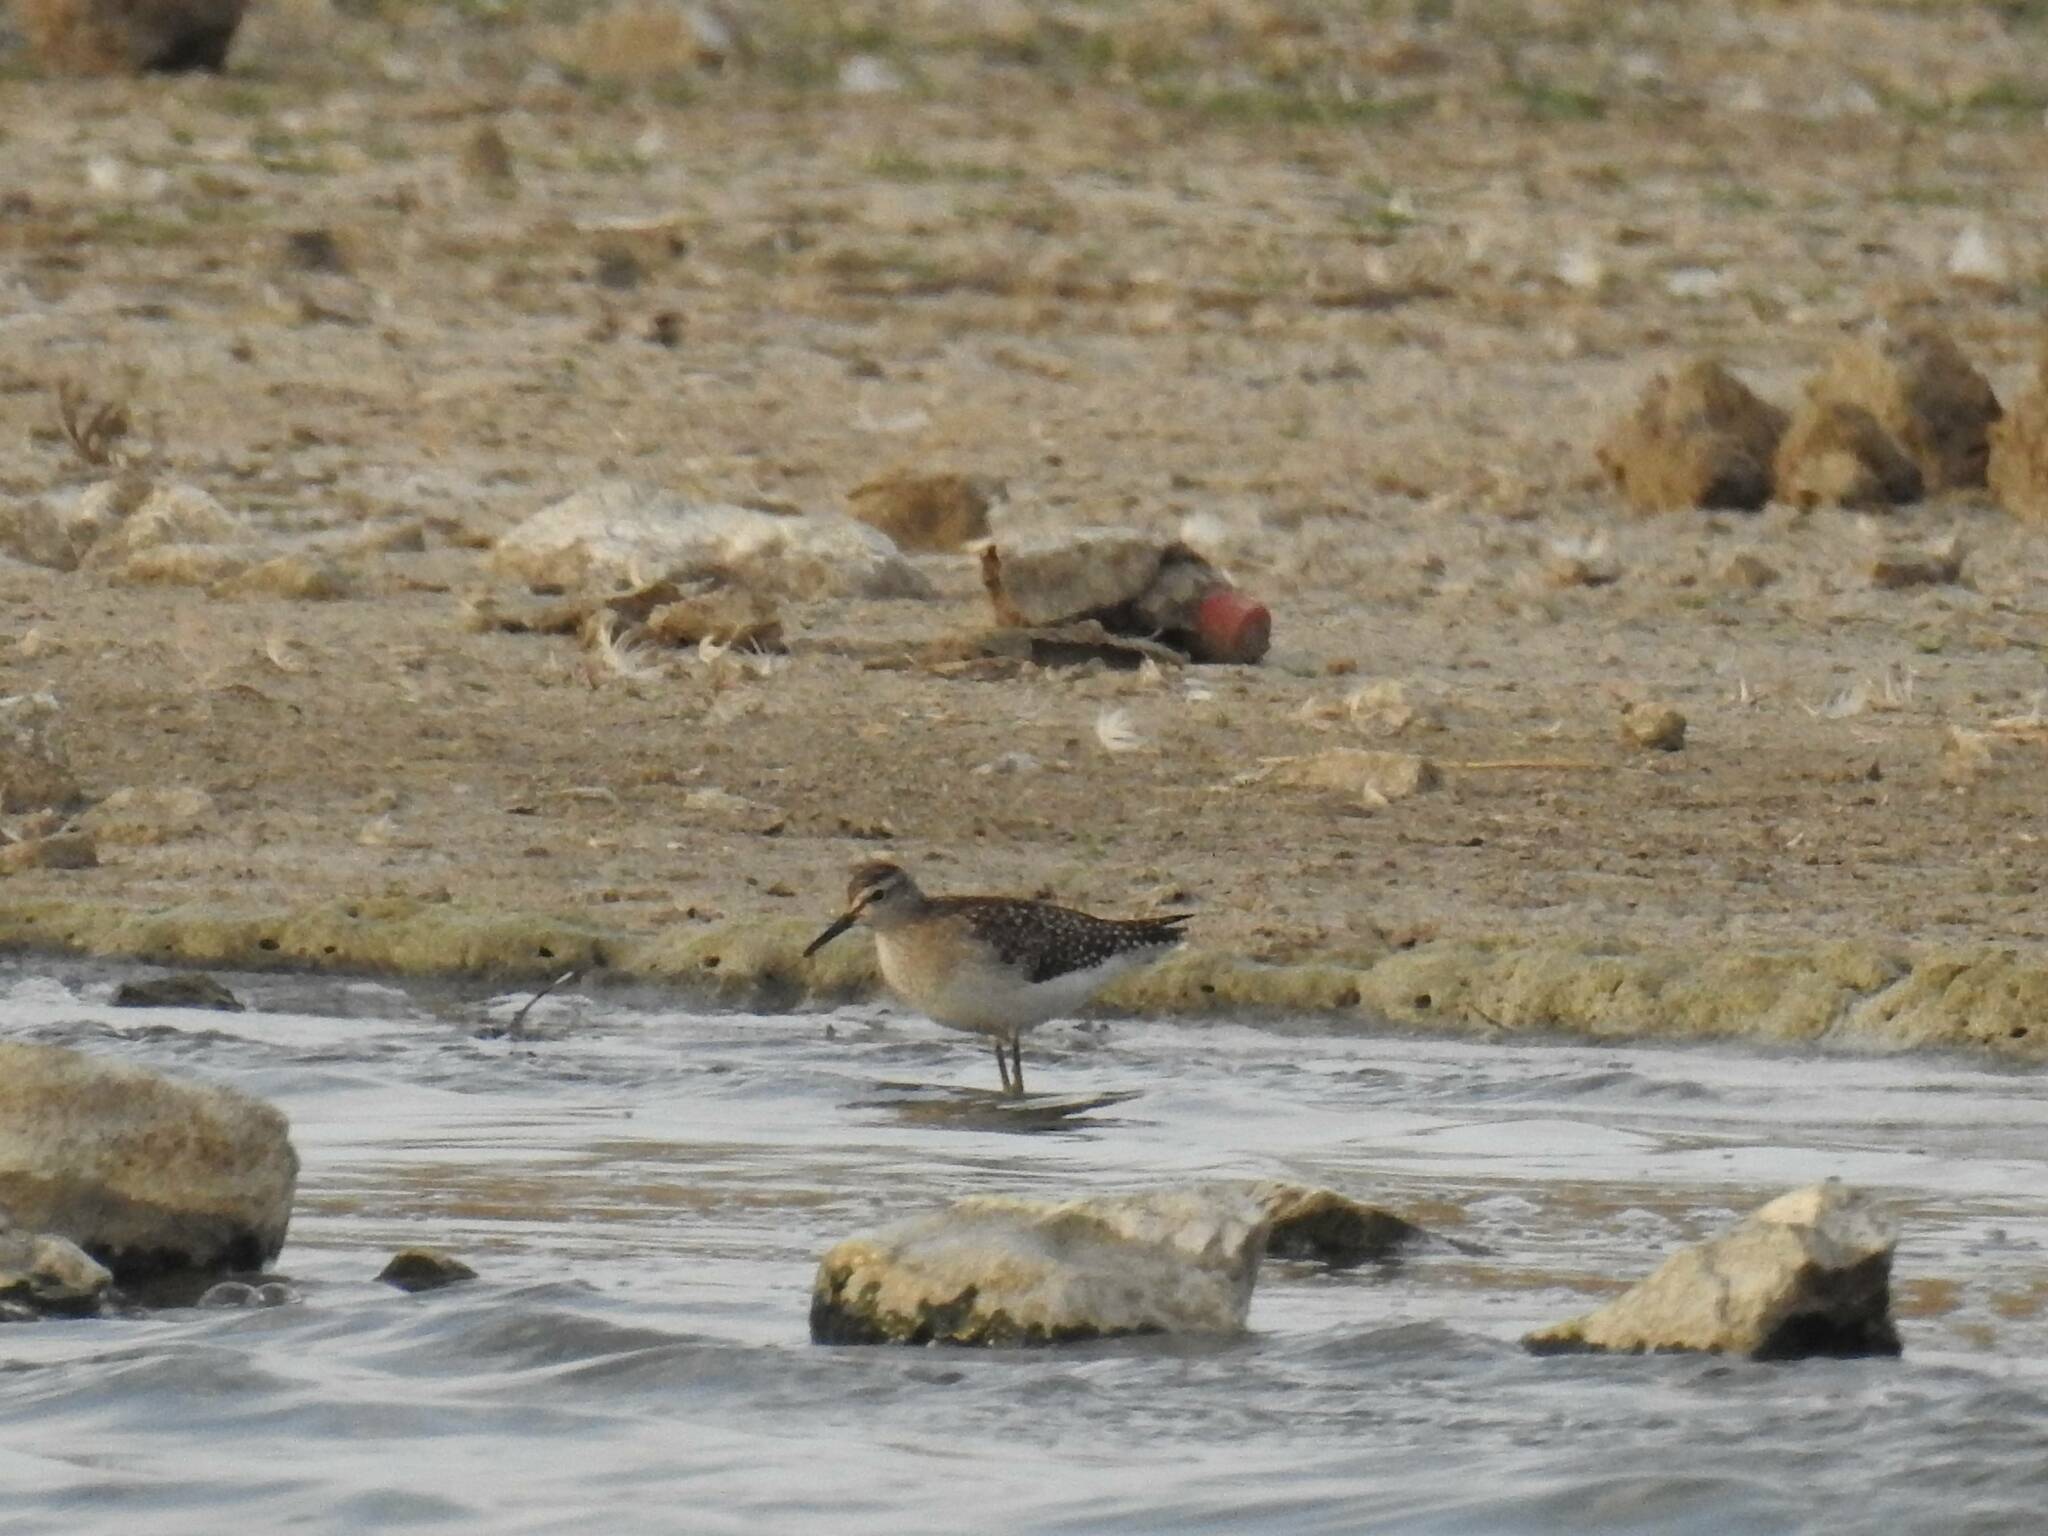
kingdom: Animalia
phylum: Chordata
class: Aves
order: Charadriiformes
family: Scolopacidae
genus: Tringa
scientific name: Tringa glareola
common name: Wood sandpiper
